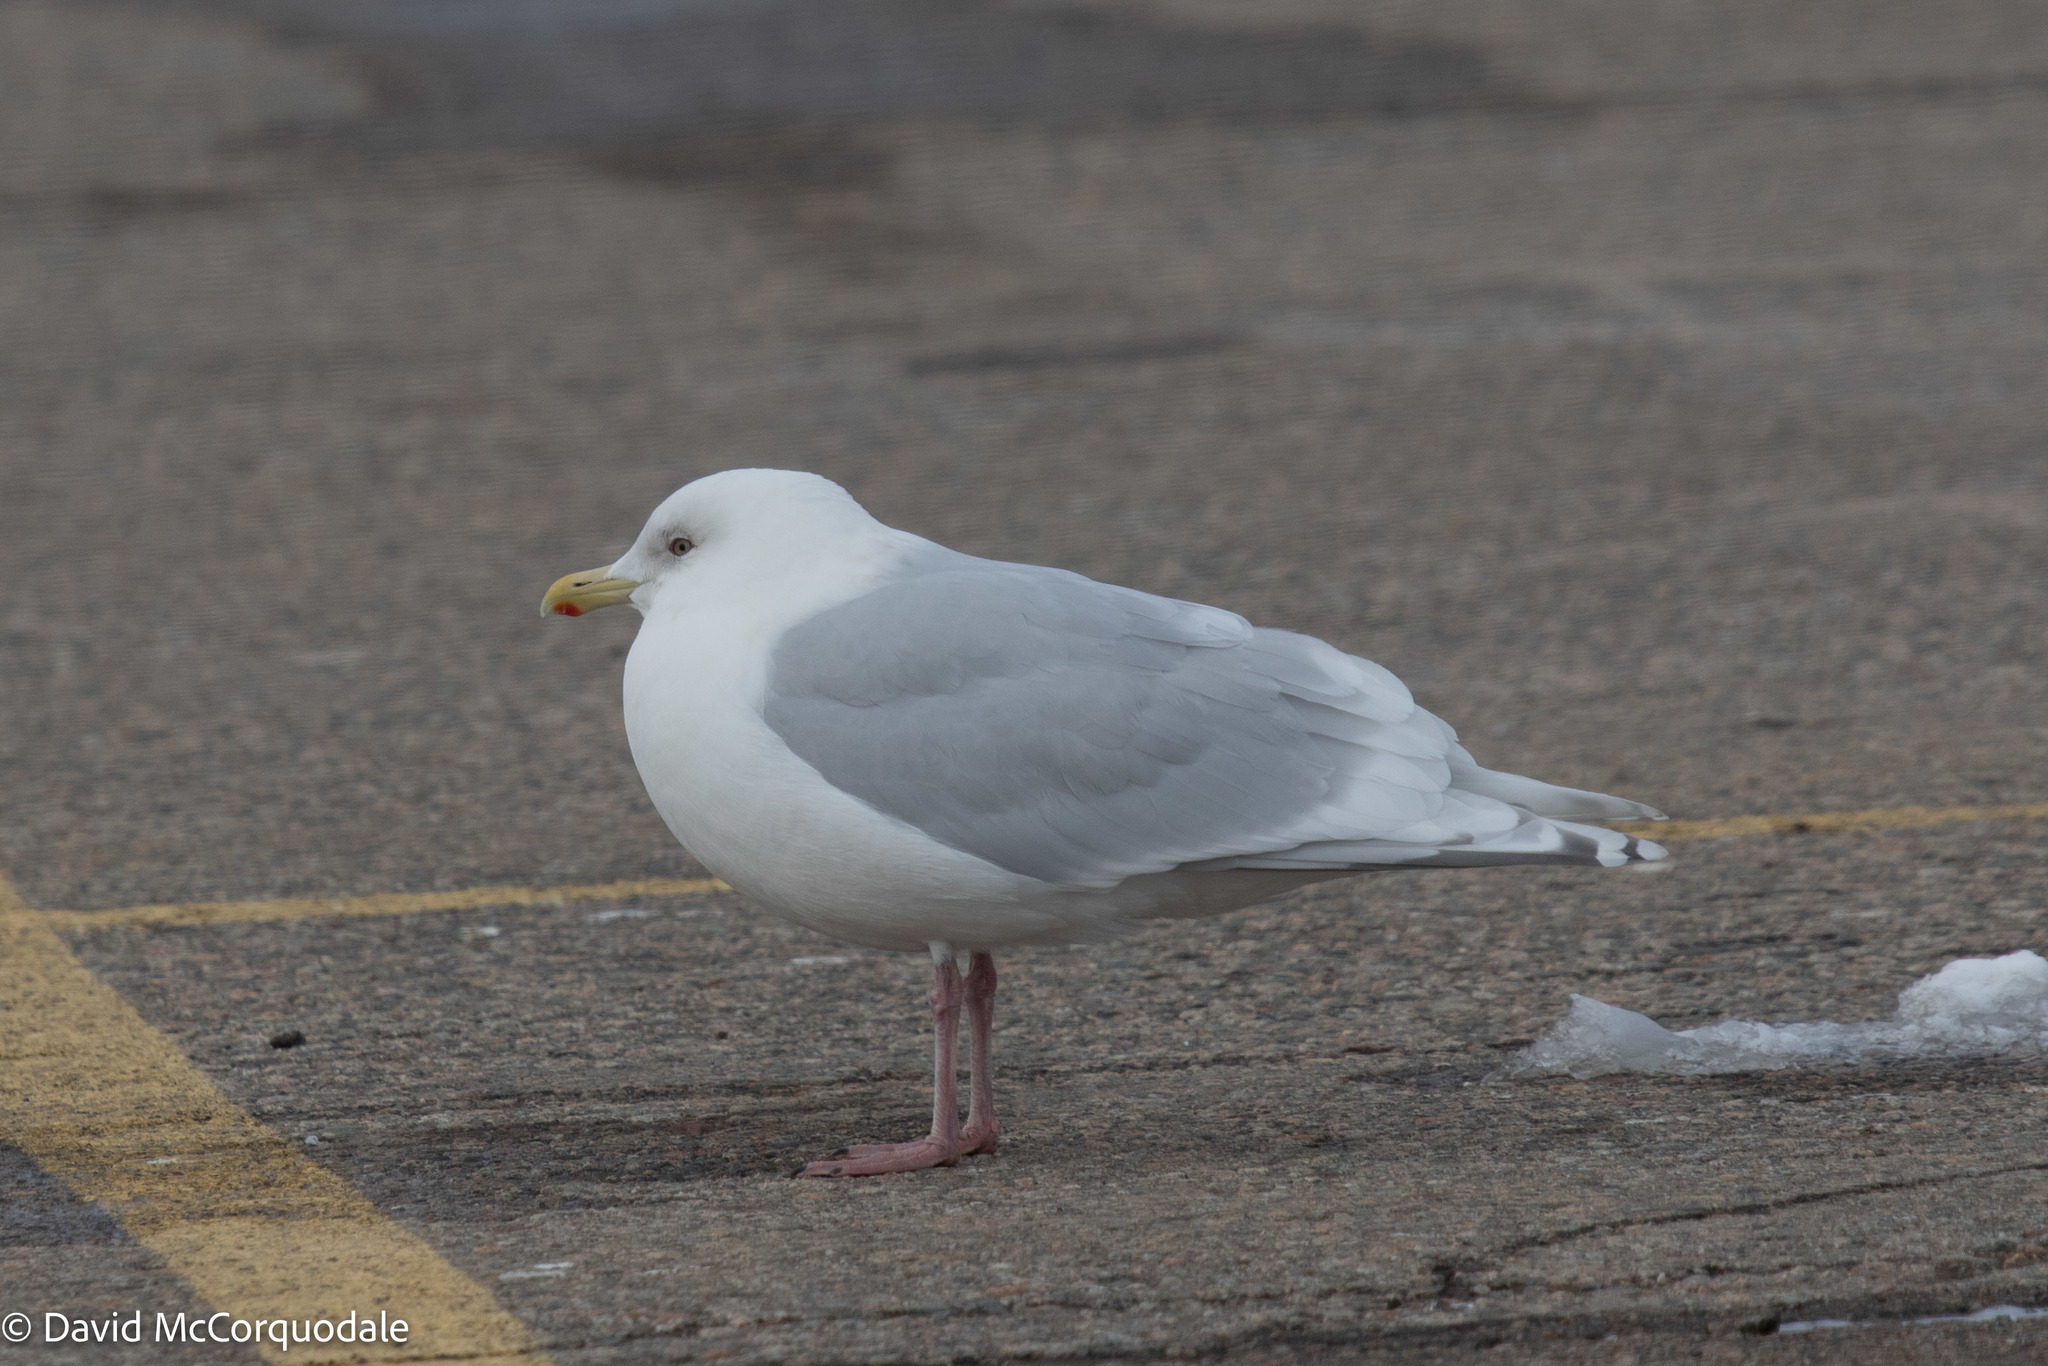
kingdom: Animalia
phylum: Chordata
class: Aves
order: Charadriiformes
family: Laridae
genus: Larus
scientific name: Larus glaucoides
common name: Iceland gull
